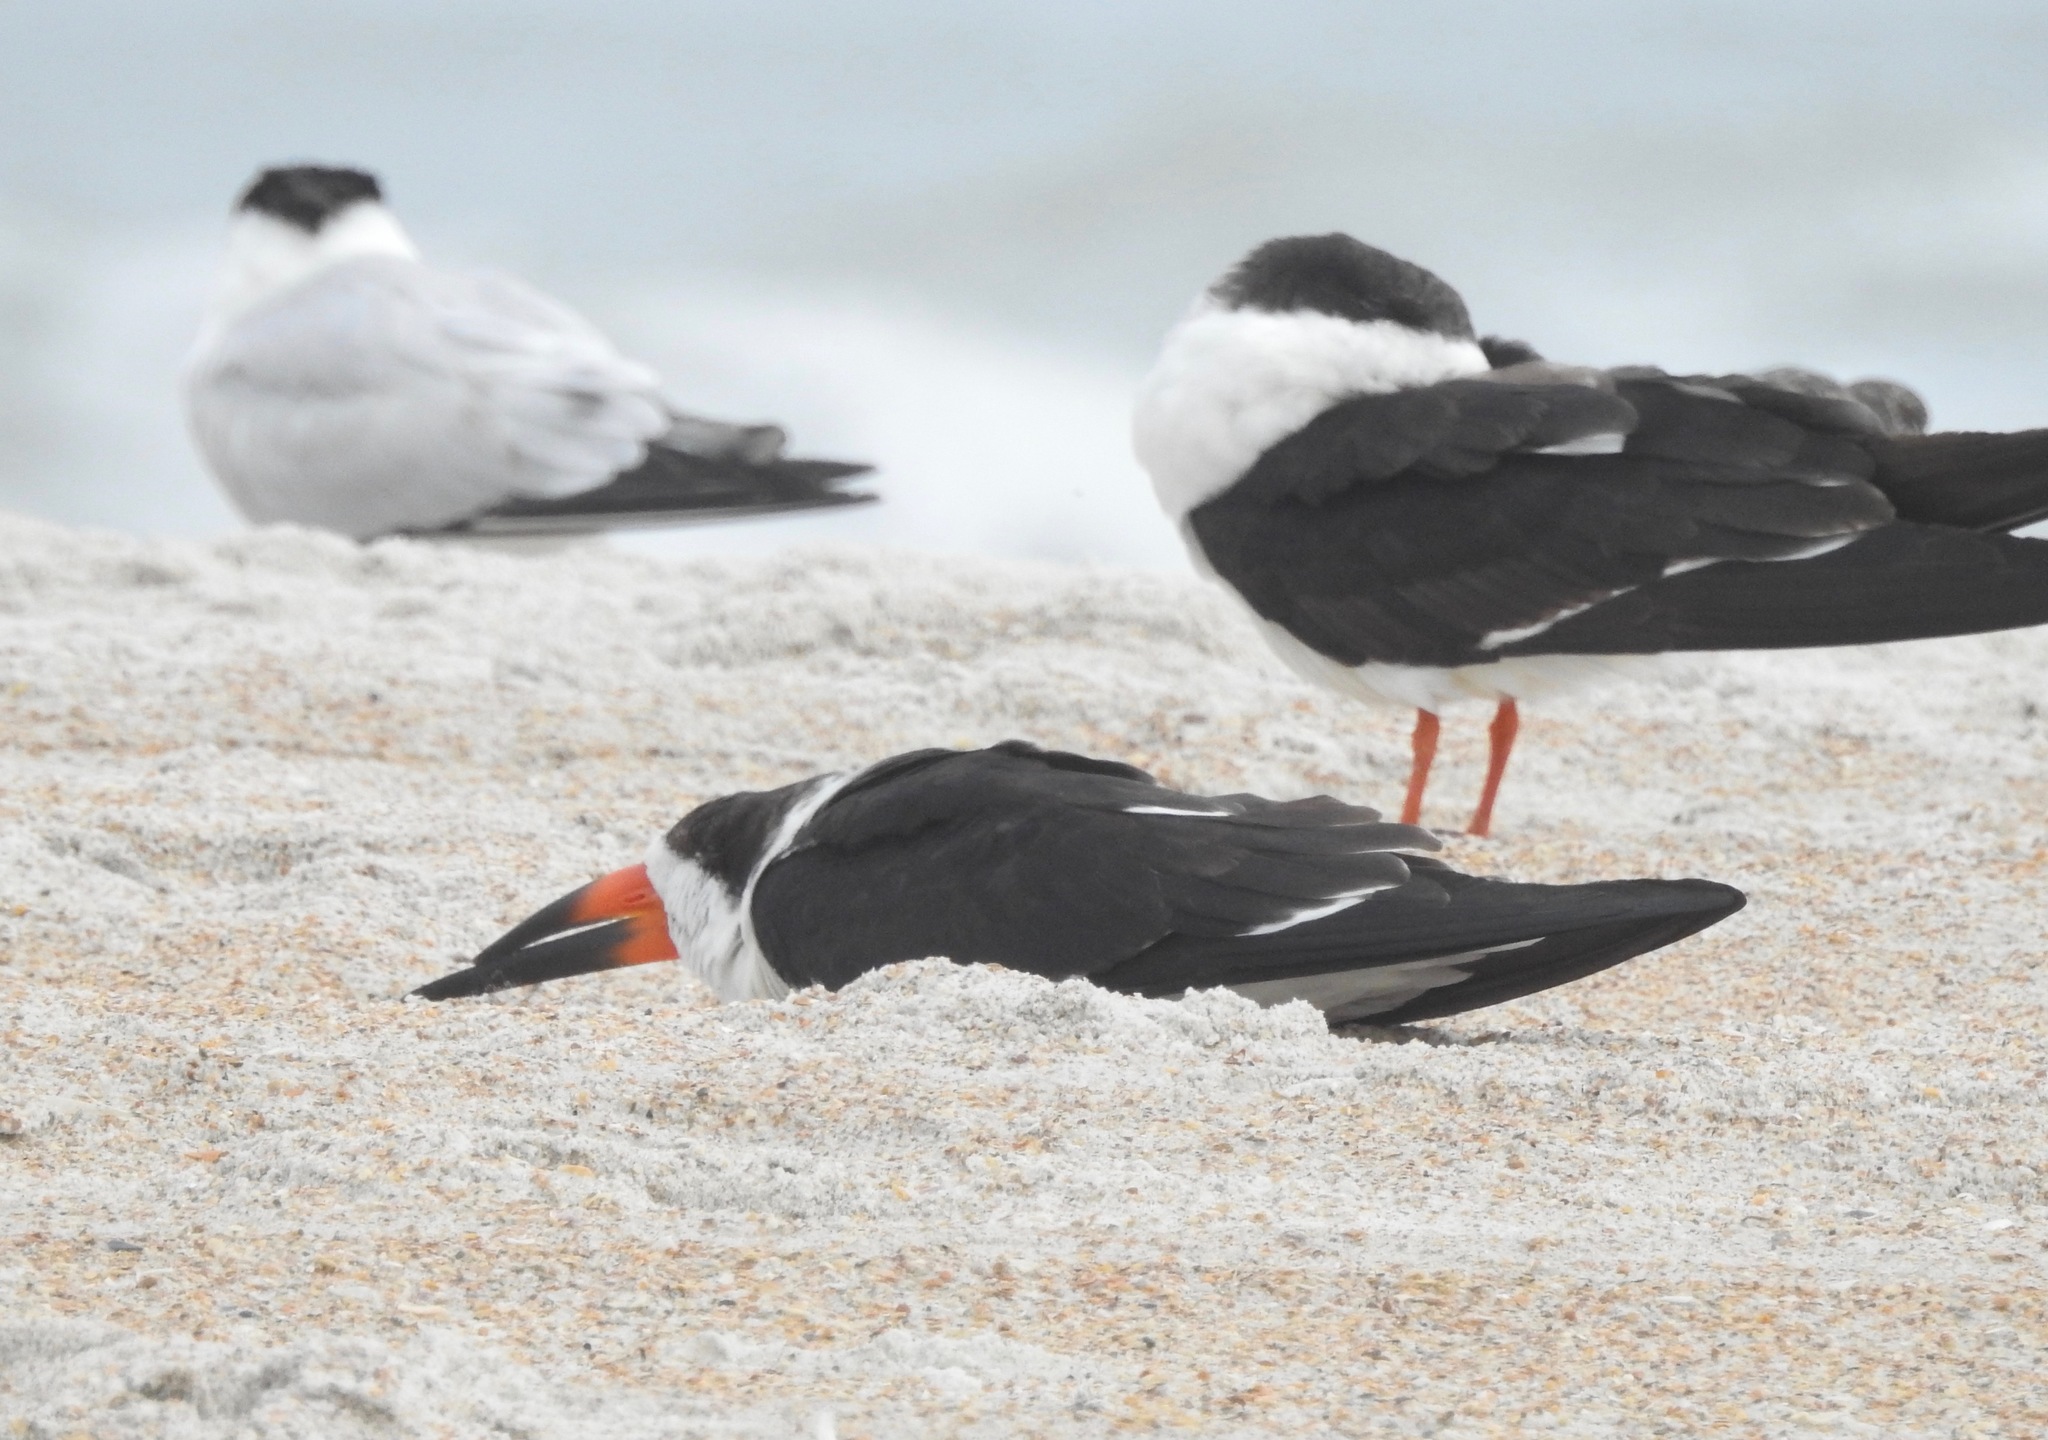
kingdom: Animalia
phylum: Chordata
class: Aves
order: Charadriiformes
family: Laridae
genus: Rynchops
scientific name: Rynchops niger
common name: Black skimmer
